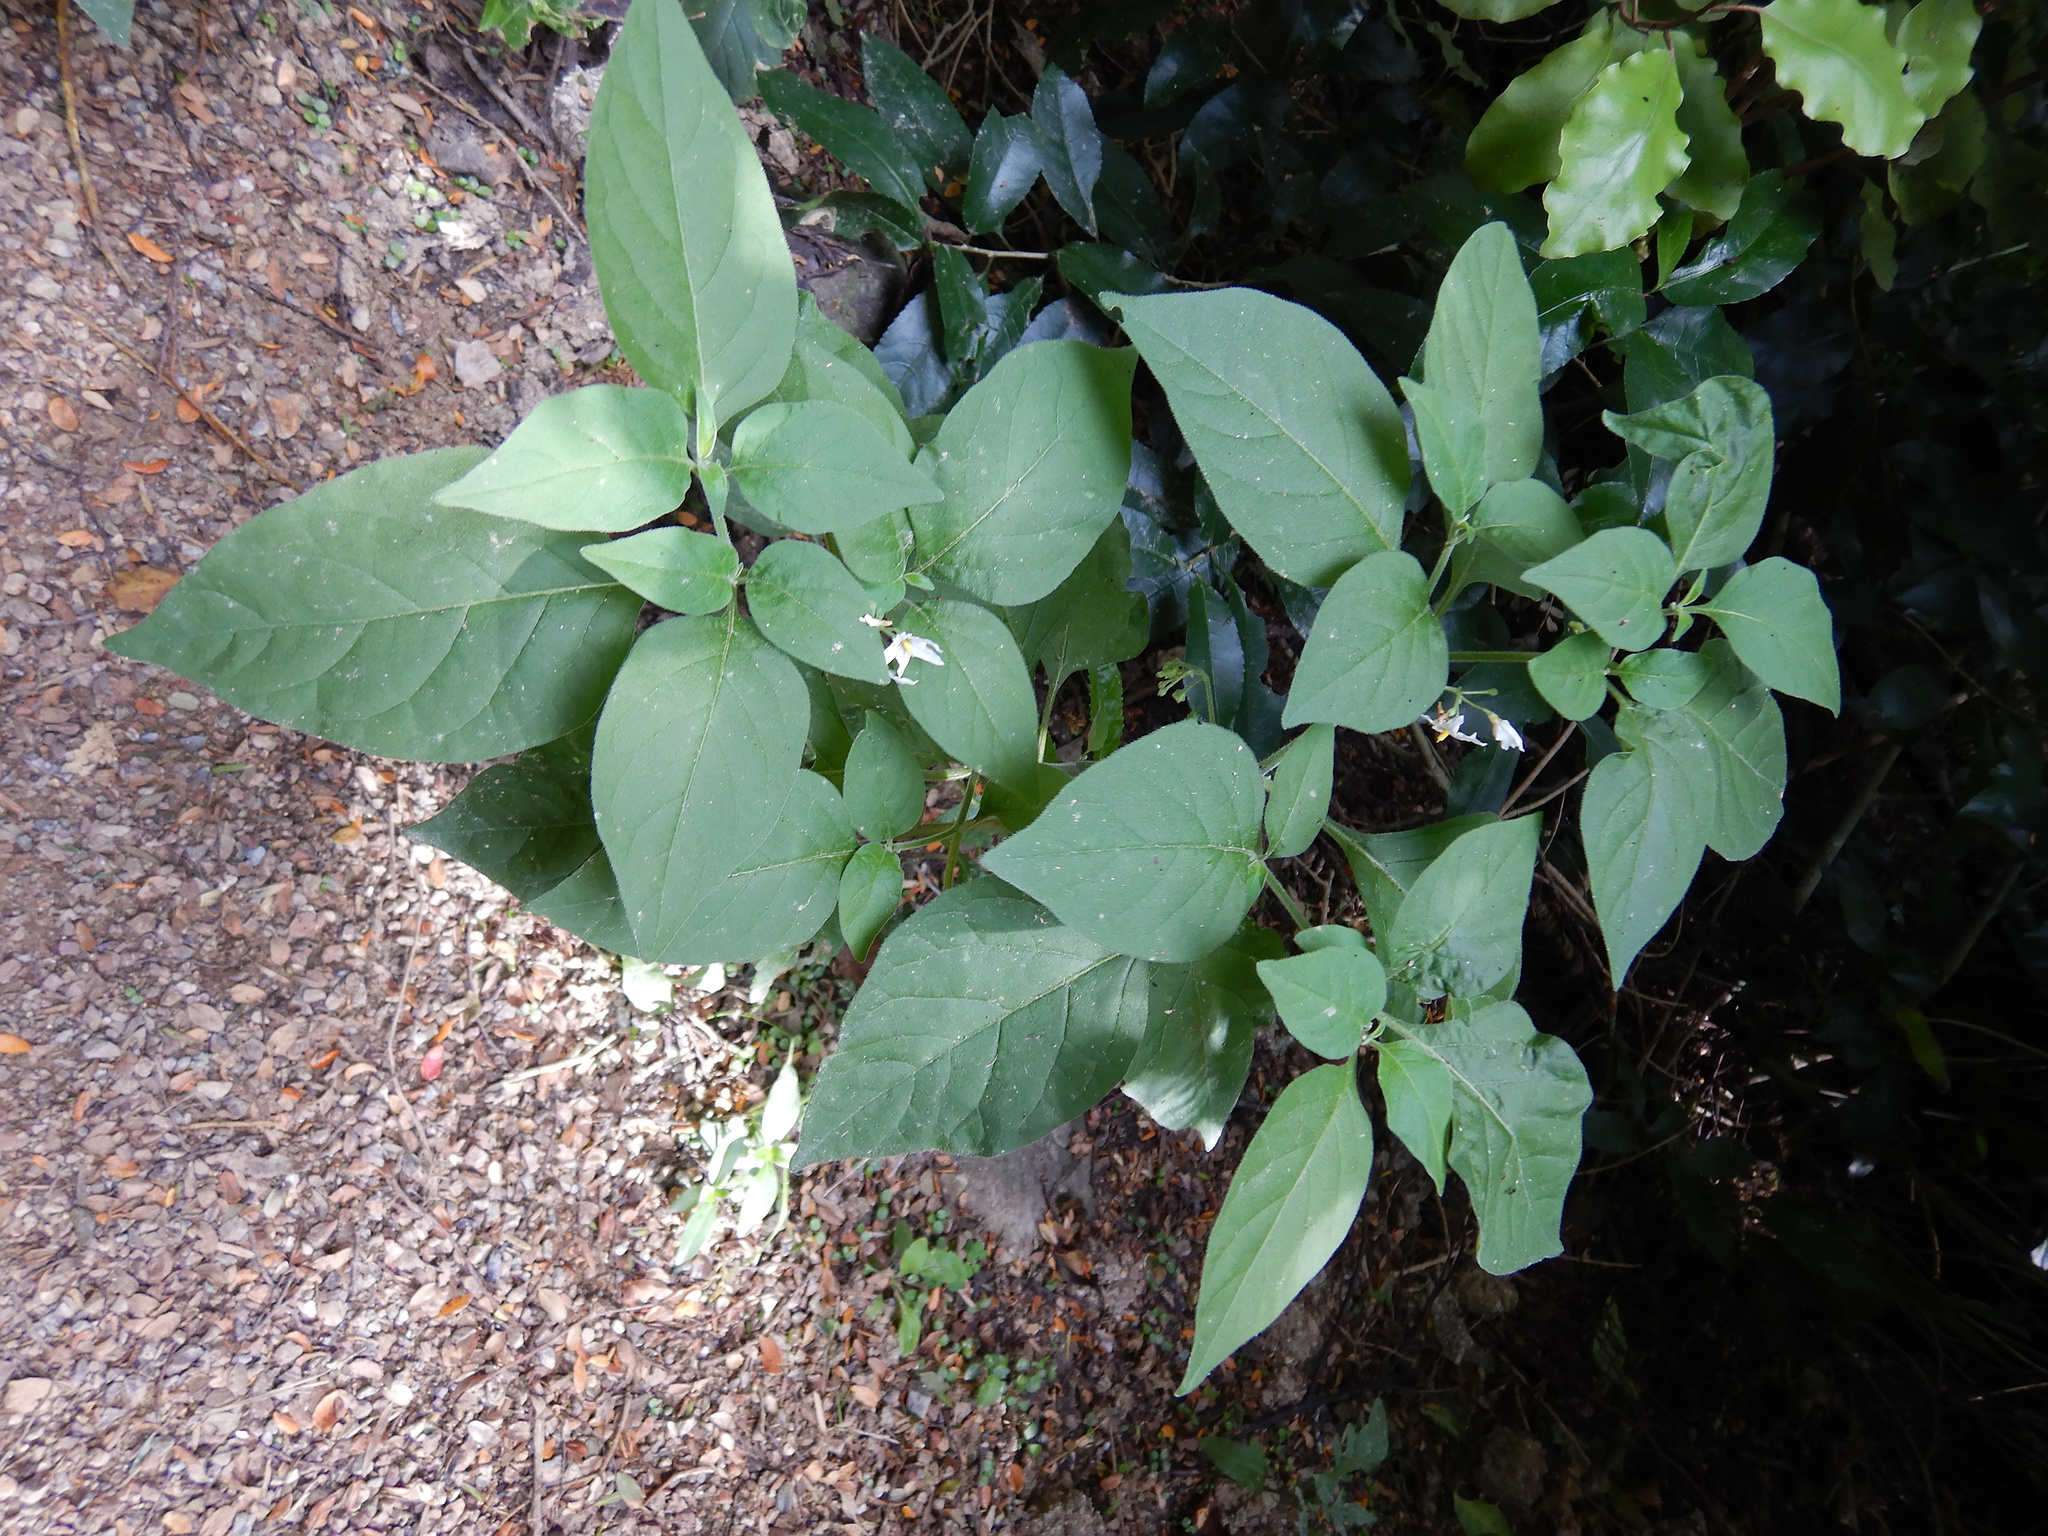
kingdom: Plantae
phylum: Tracheophyta
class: Magnoliopsida
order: Solanales
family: Solanaceae
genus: Solanum
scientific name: Solanum chenopodioides
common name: Tall nightshade
